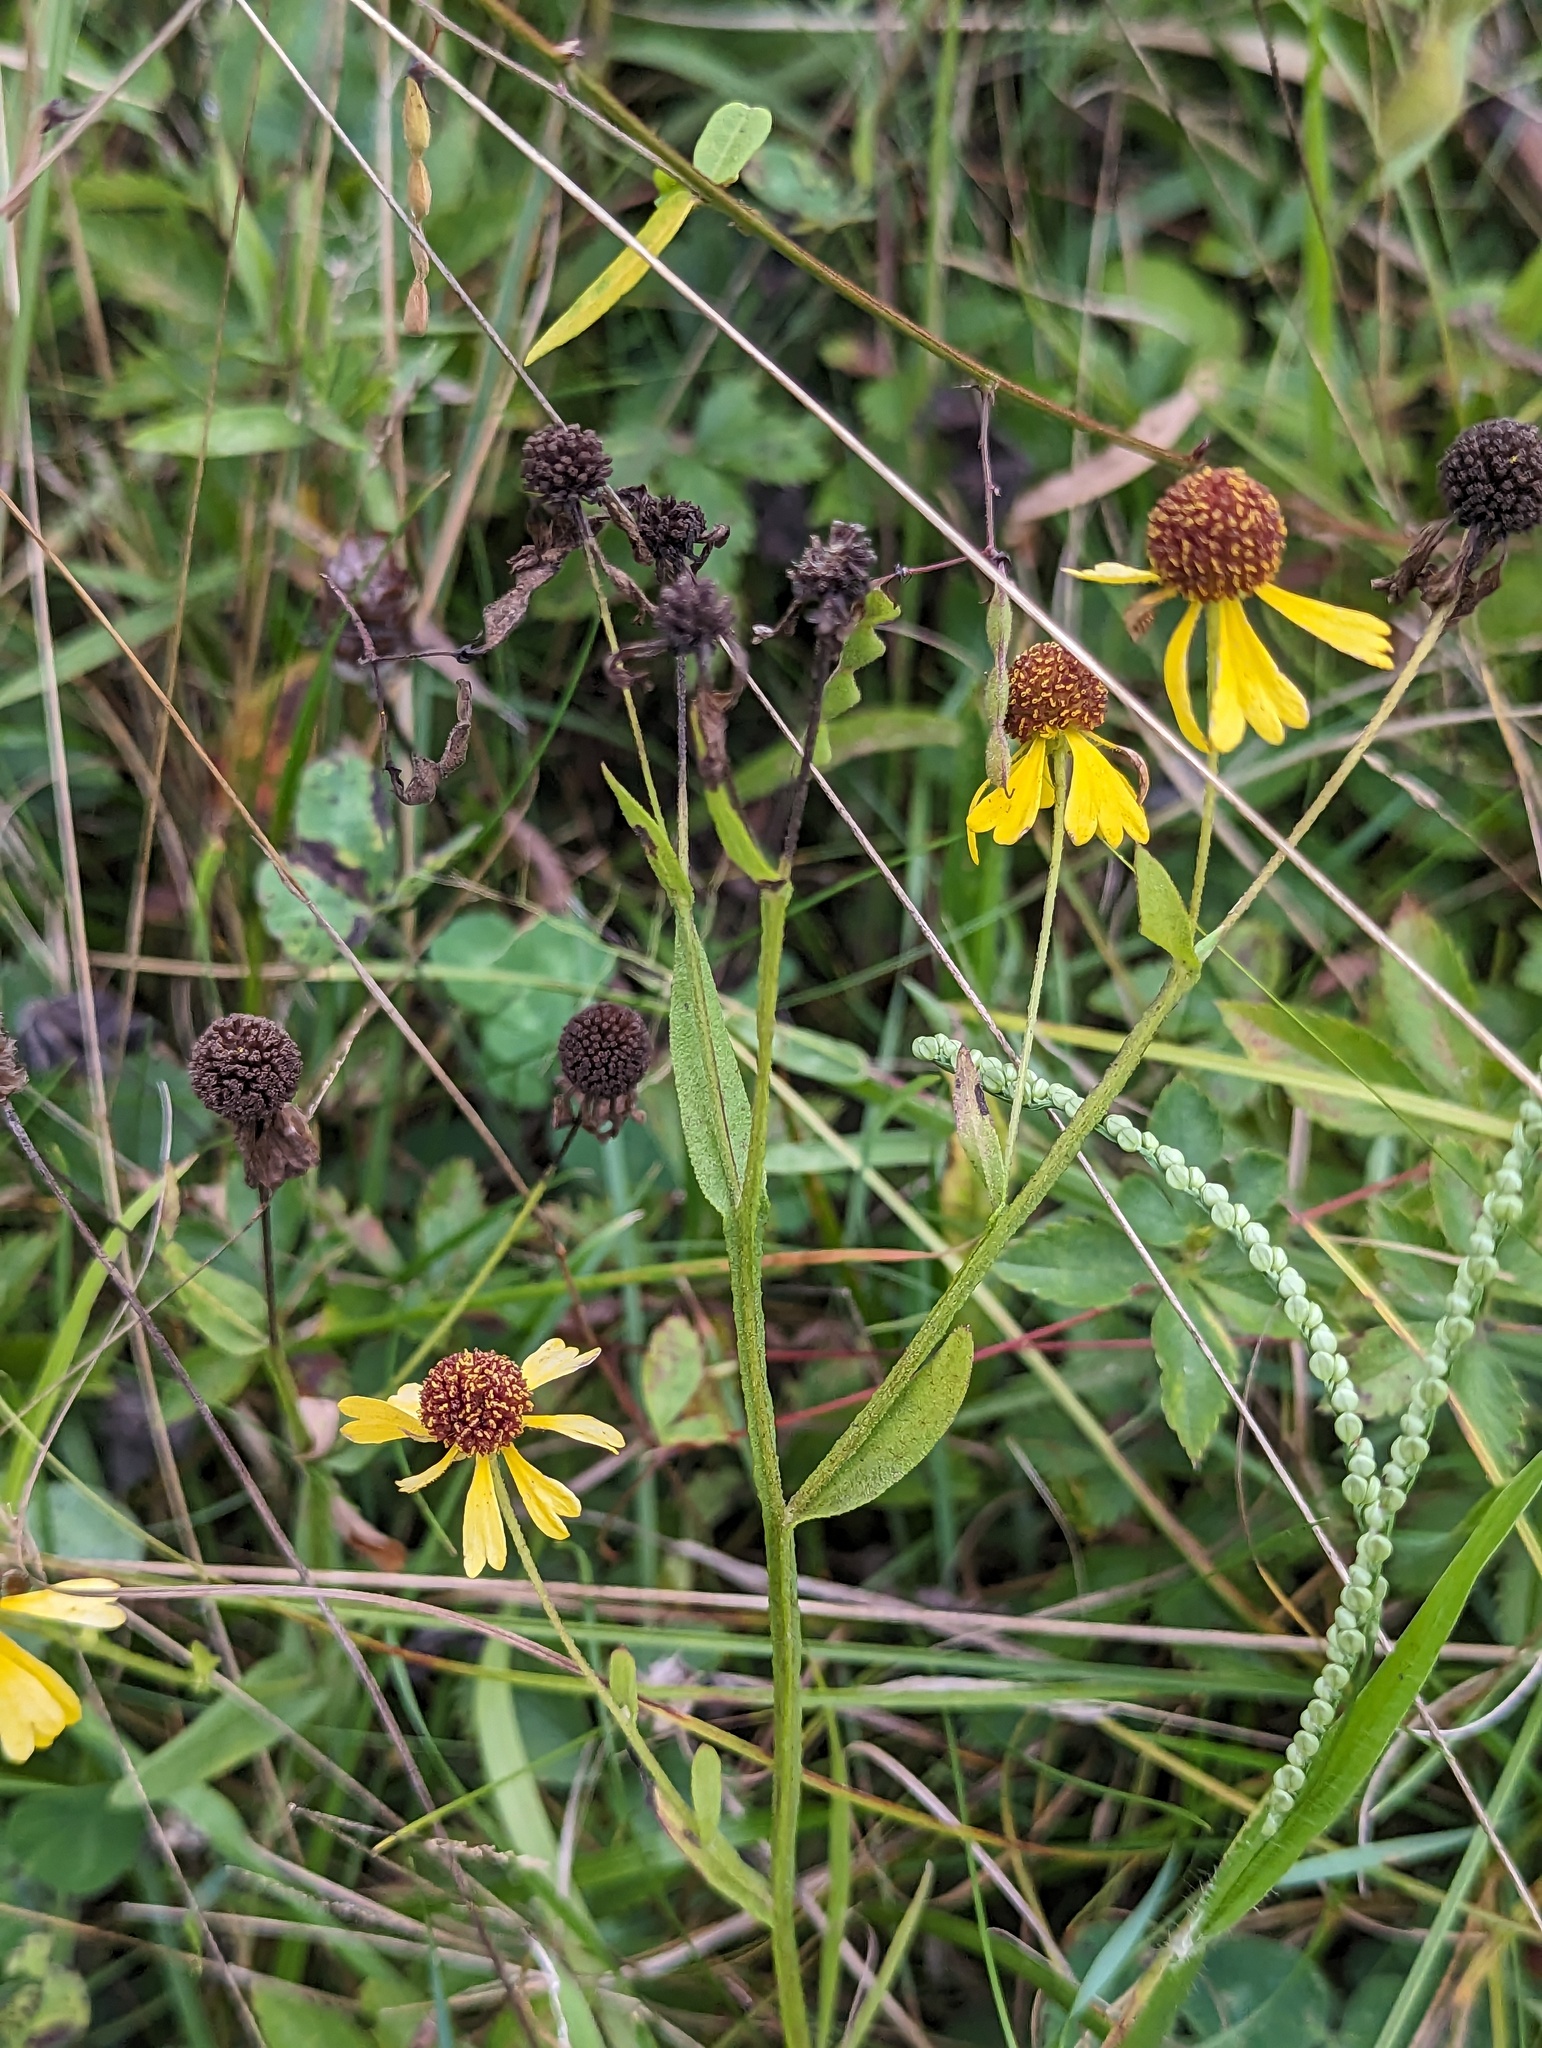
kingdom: Plantae
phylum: Tracheophyta
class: Magnoliopsida
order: Asterales
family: Asteraceae
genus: Helenium
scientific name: Helenium flexuosum
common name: Naked-flowered sneezeweed
